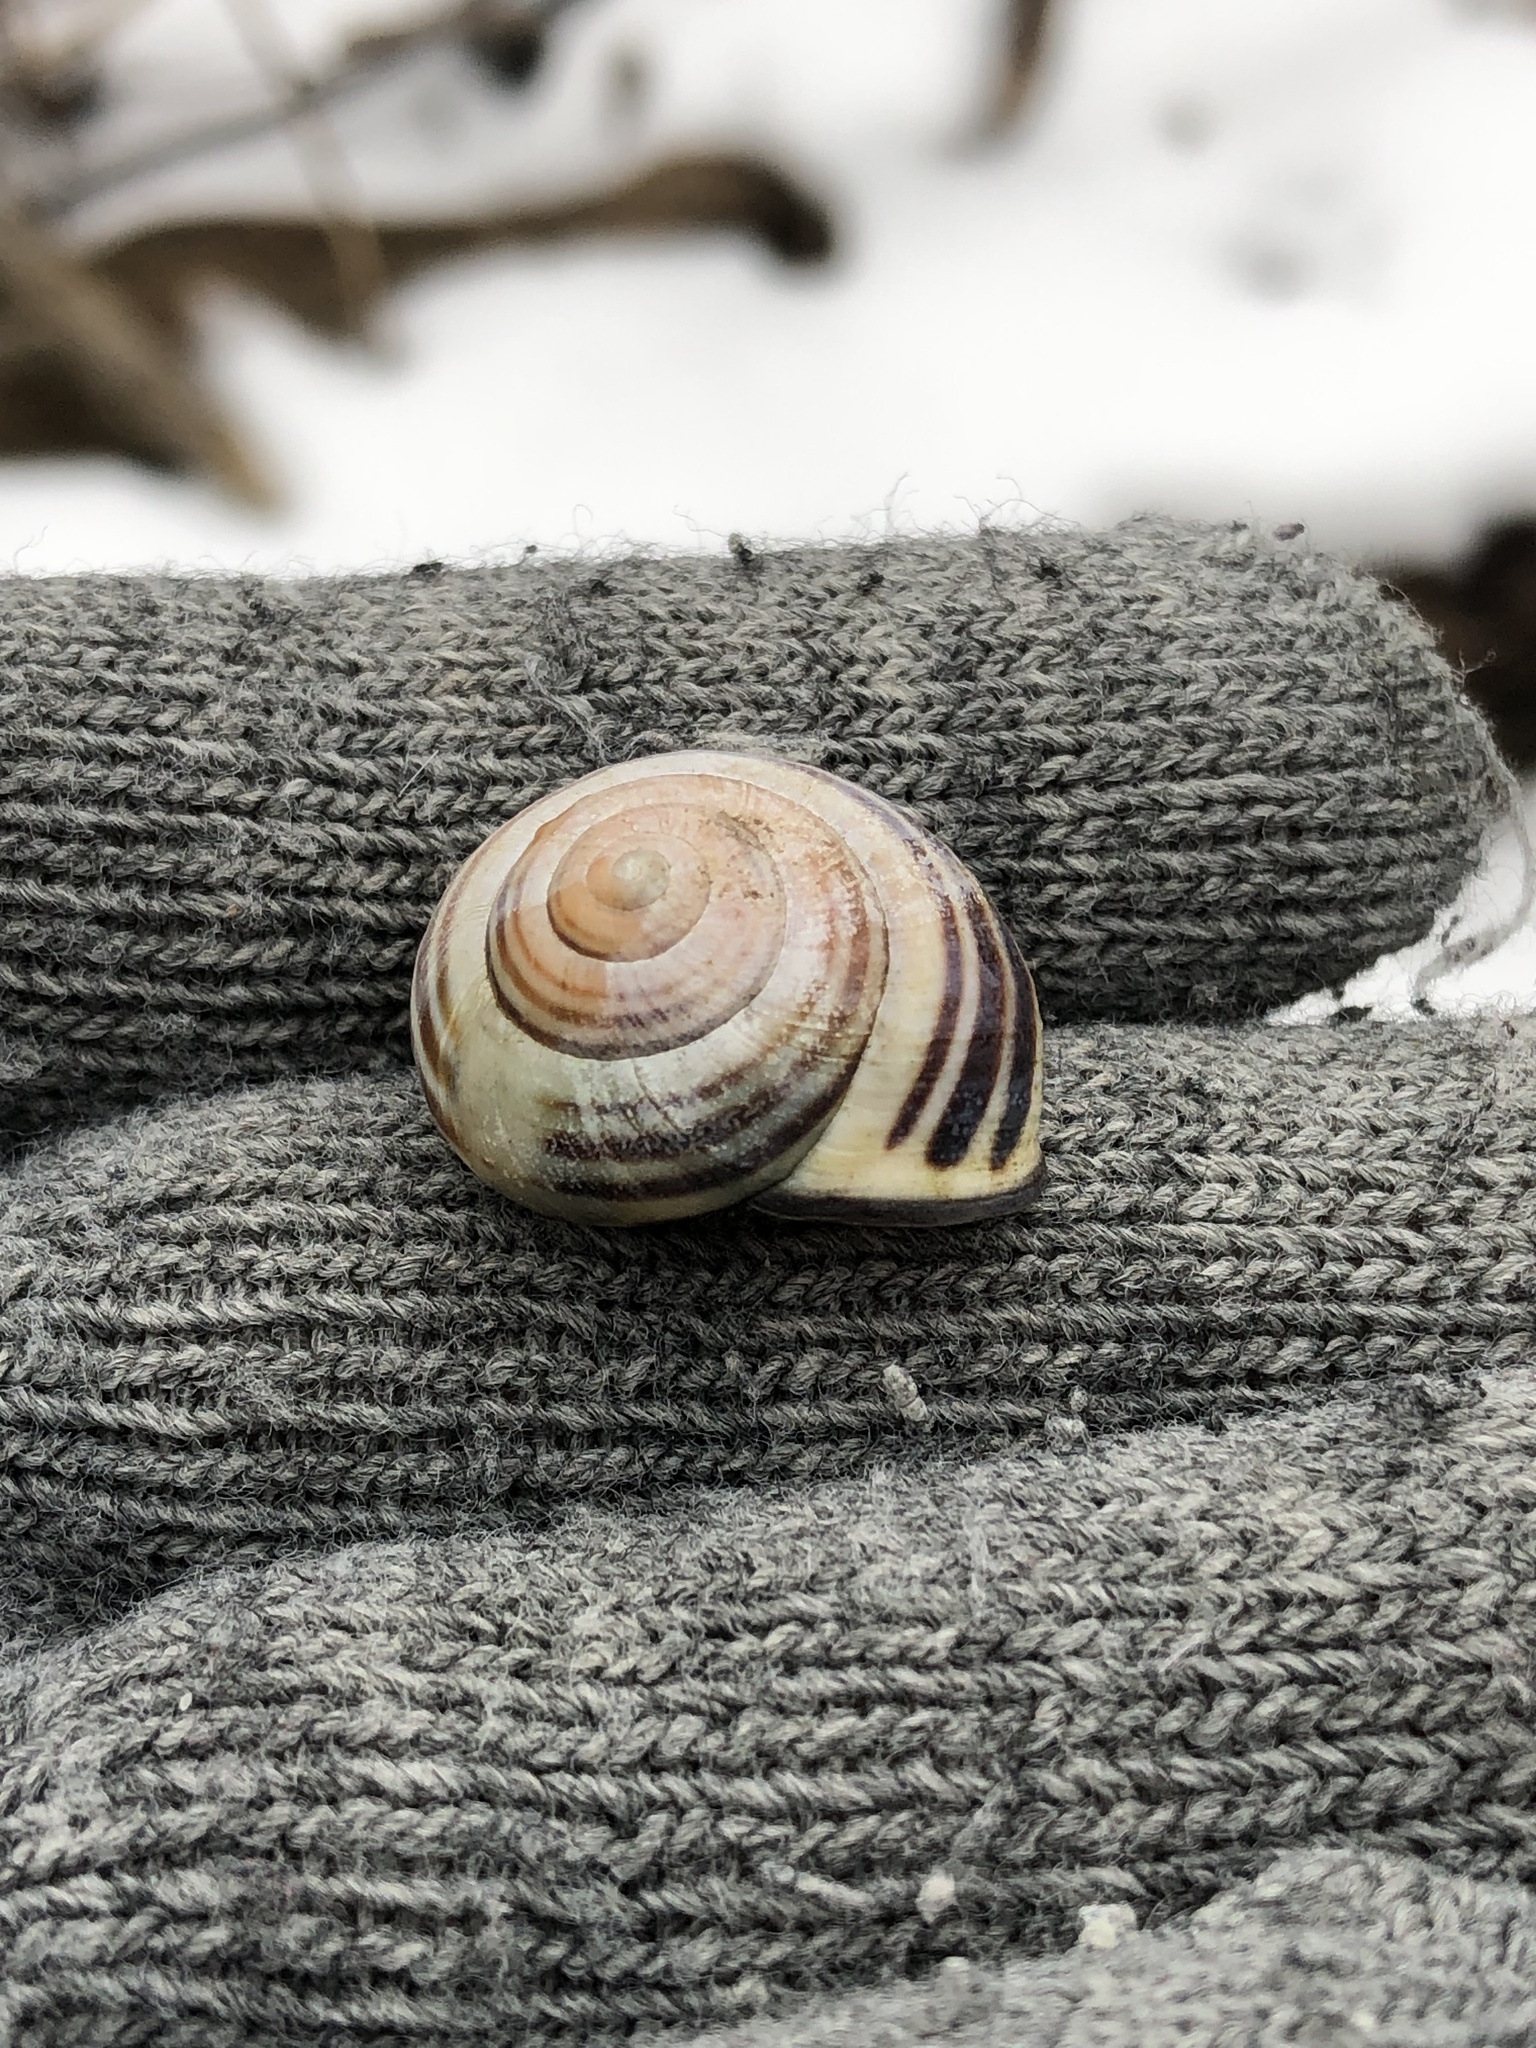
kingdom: Animalia
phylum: Mollusca
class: Gastropoda
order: Stylommatophora
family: Helicidae
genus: Cepaea
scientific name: Cepaea nemoralis
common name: Grovesnail
